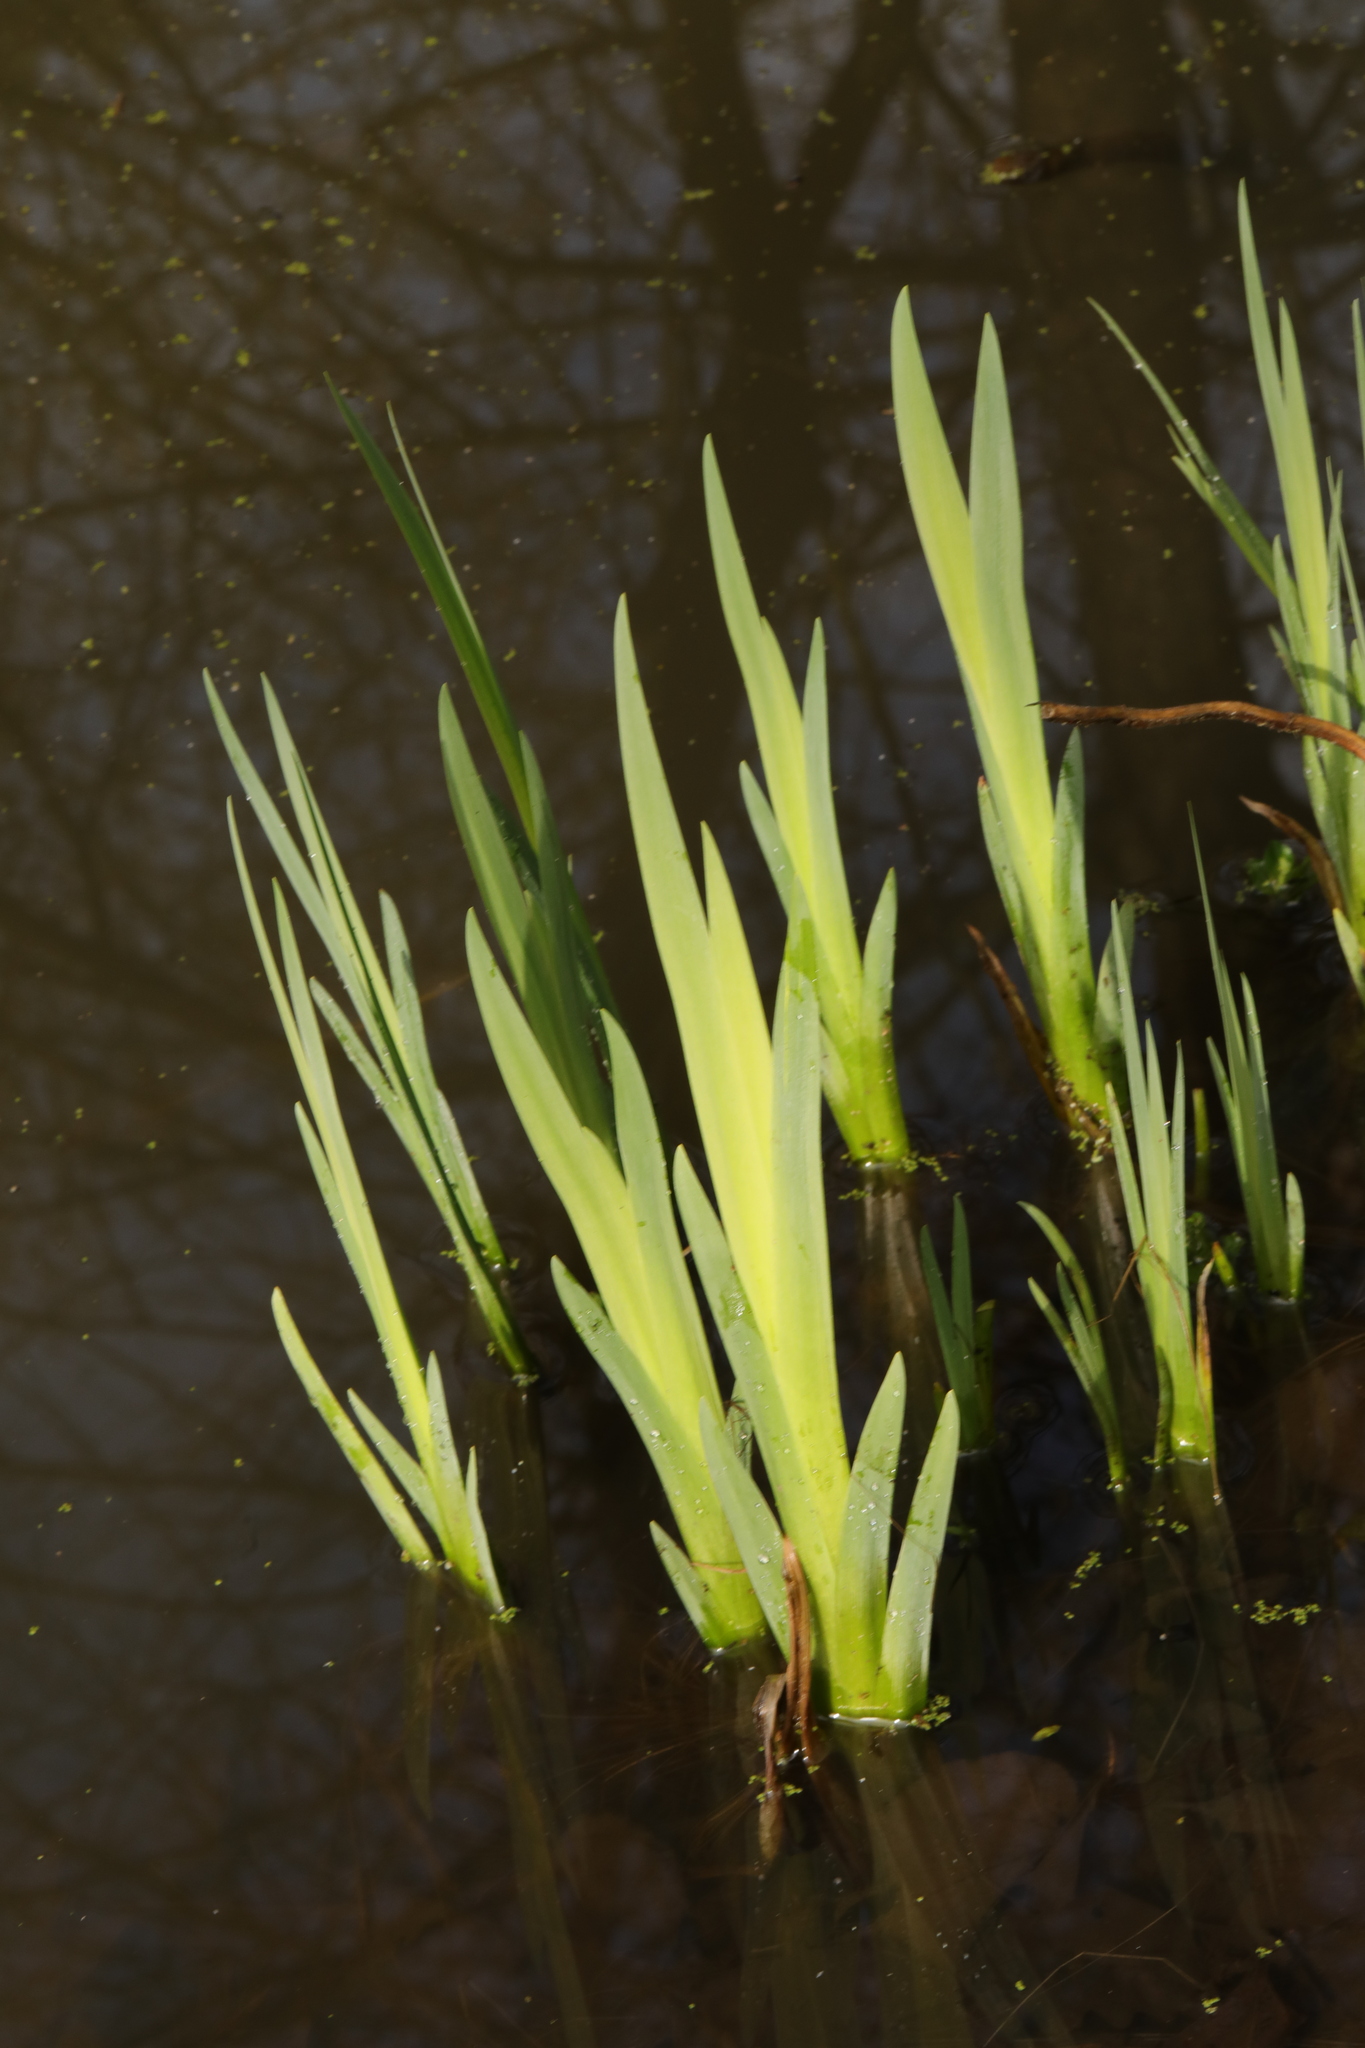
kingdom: Plantae
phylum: Tracheophyta
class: Liliopsida
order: Asparagales
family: Iridaceae
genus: Iris
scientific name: Iris pseudacorus
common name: Yellow flag
